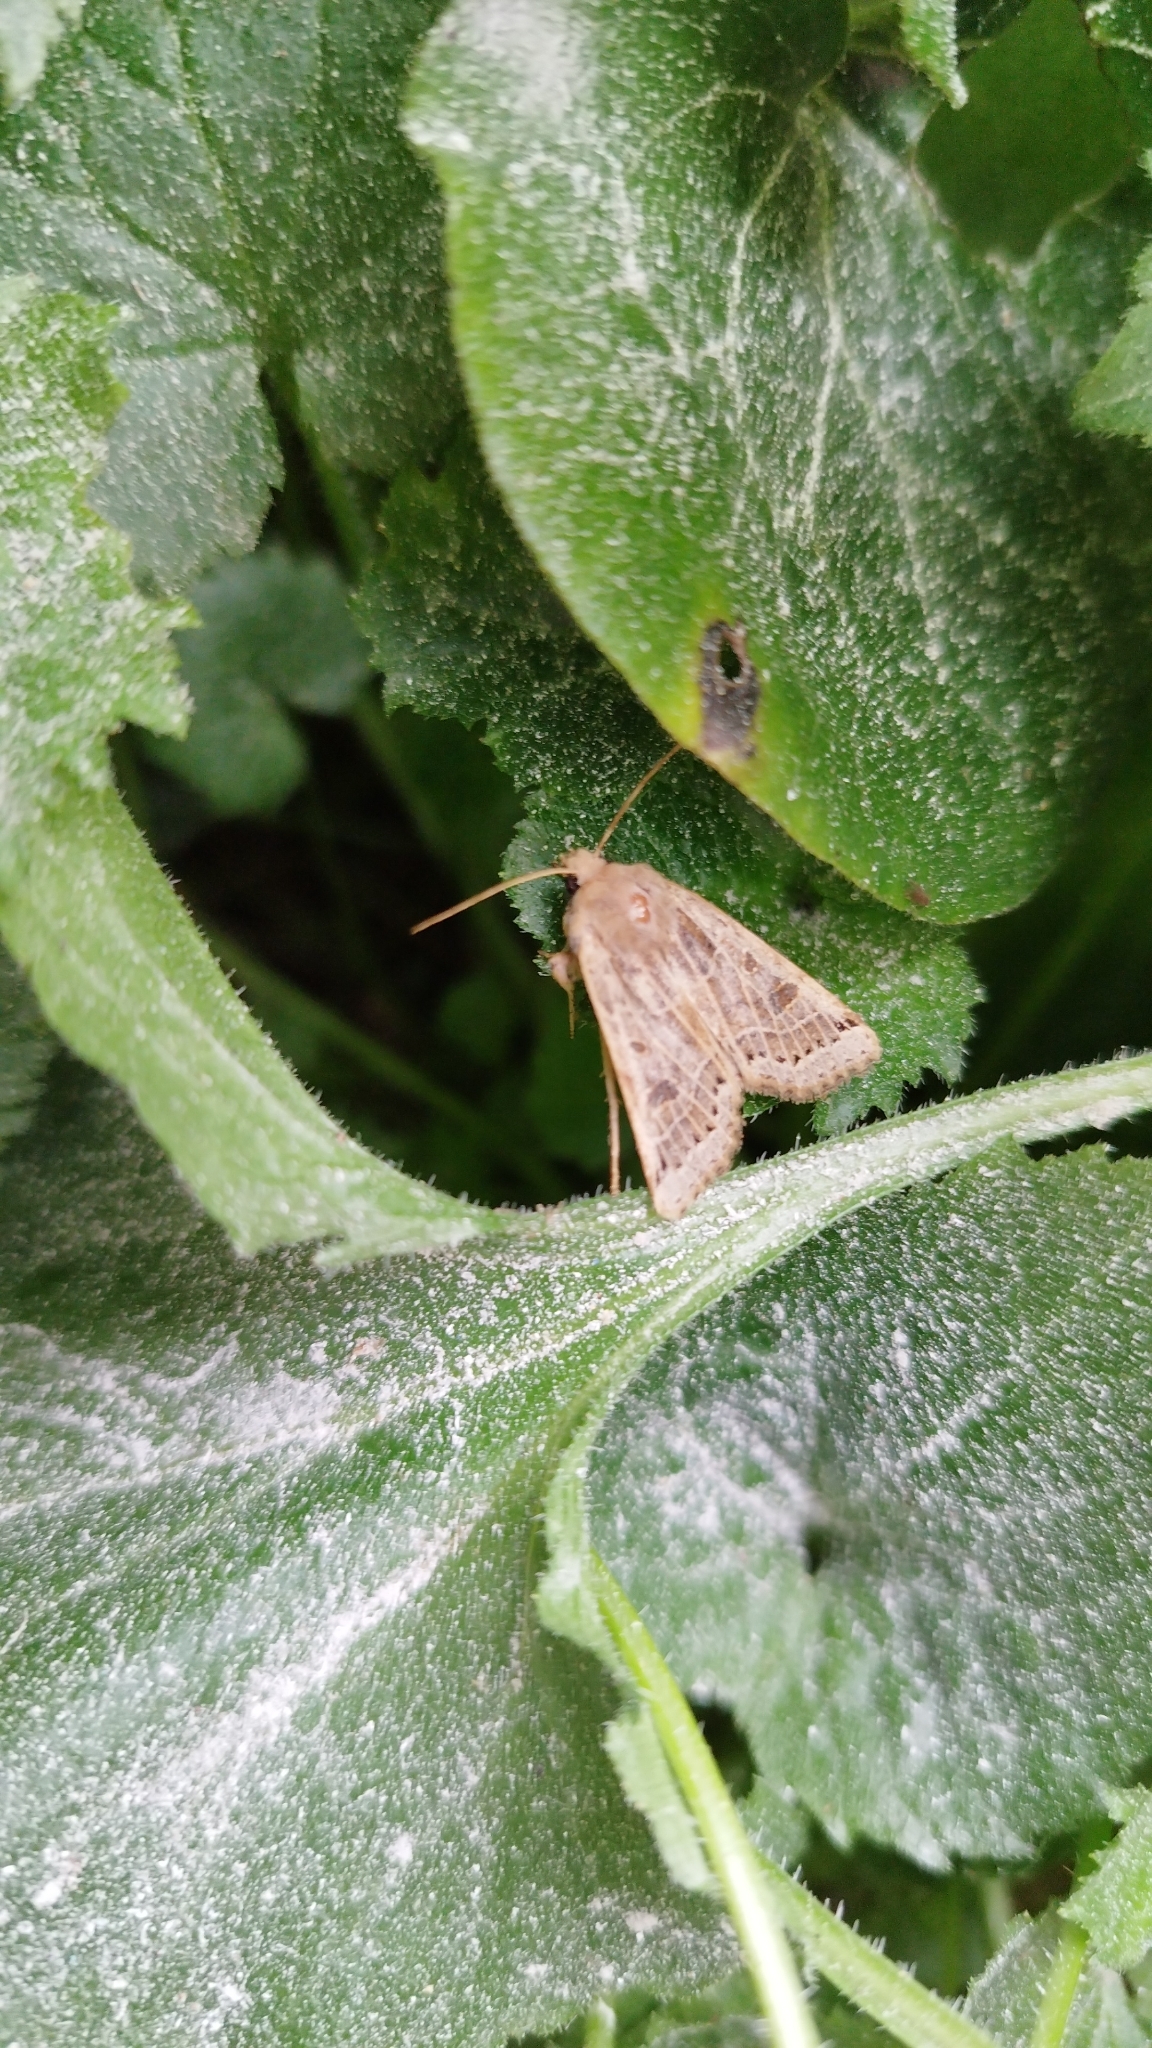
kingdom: Animalia
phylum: Arthropoda
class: Insecta
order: Lepidoptera
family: Noctuidae
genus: Agrochola
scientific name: Agrochola lunosa
